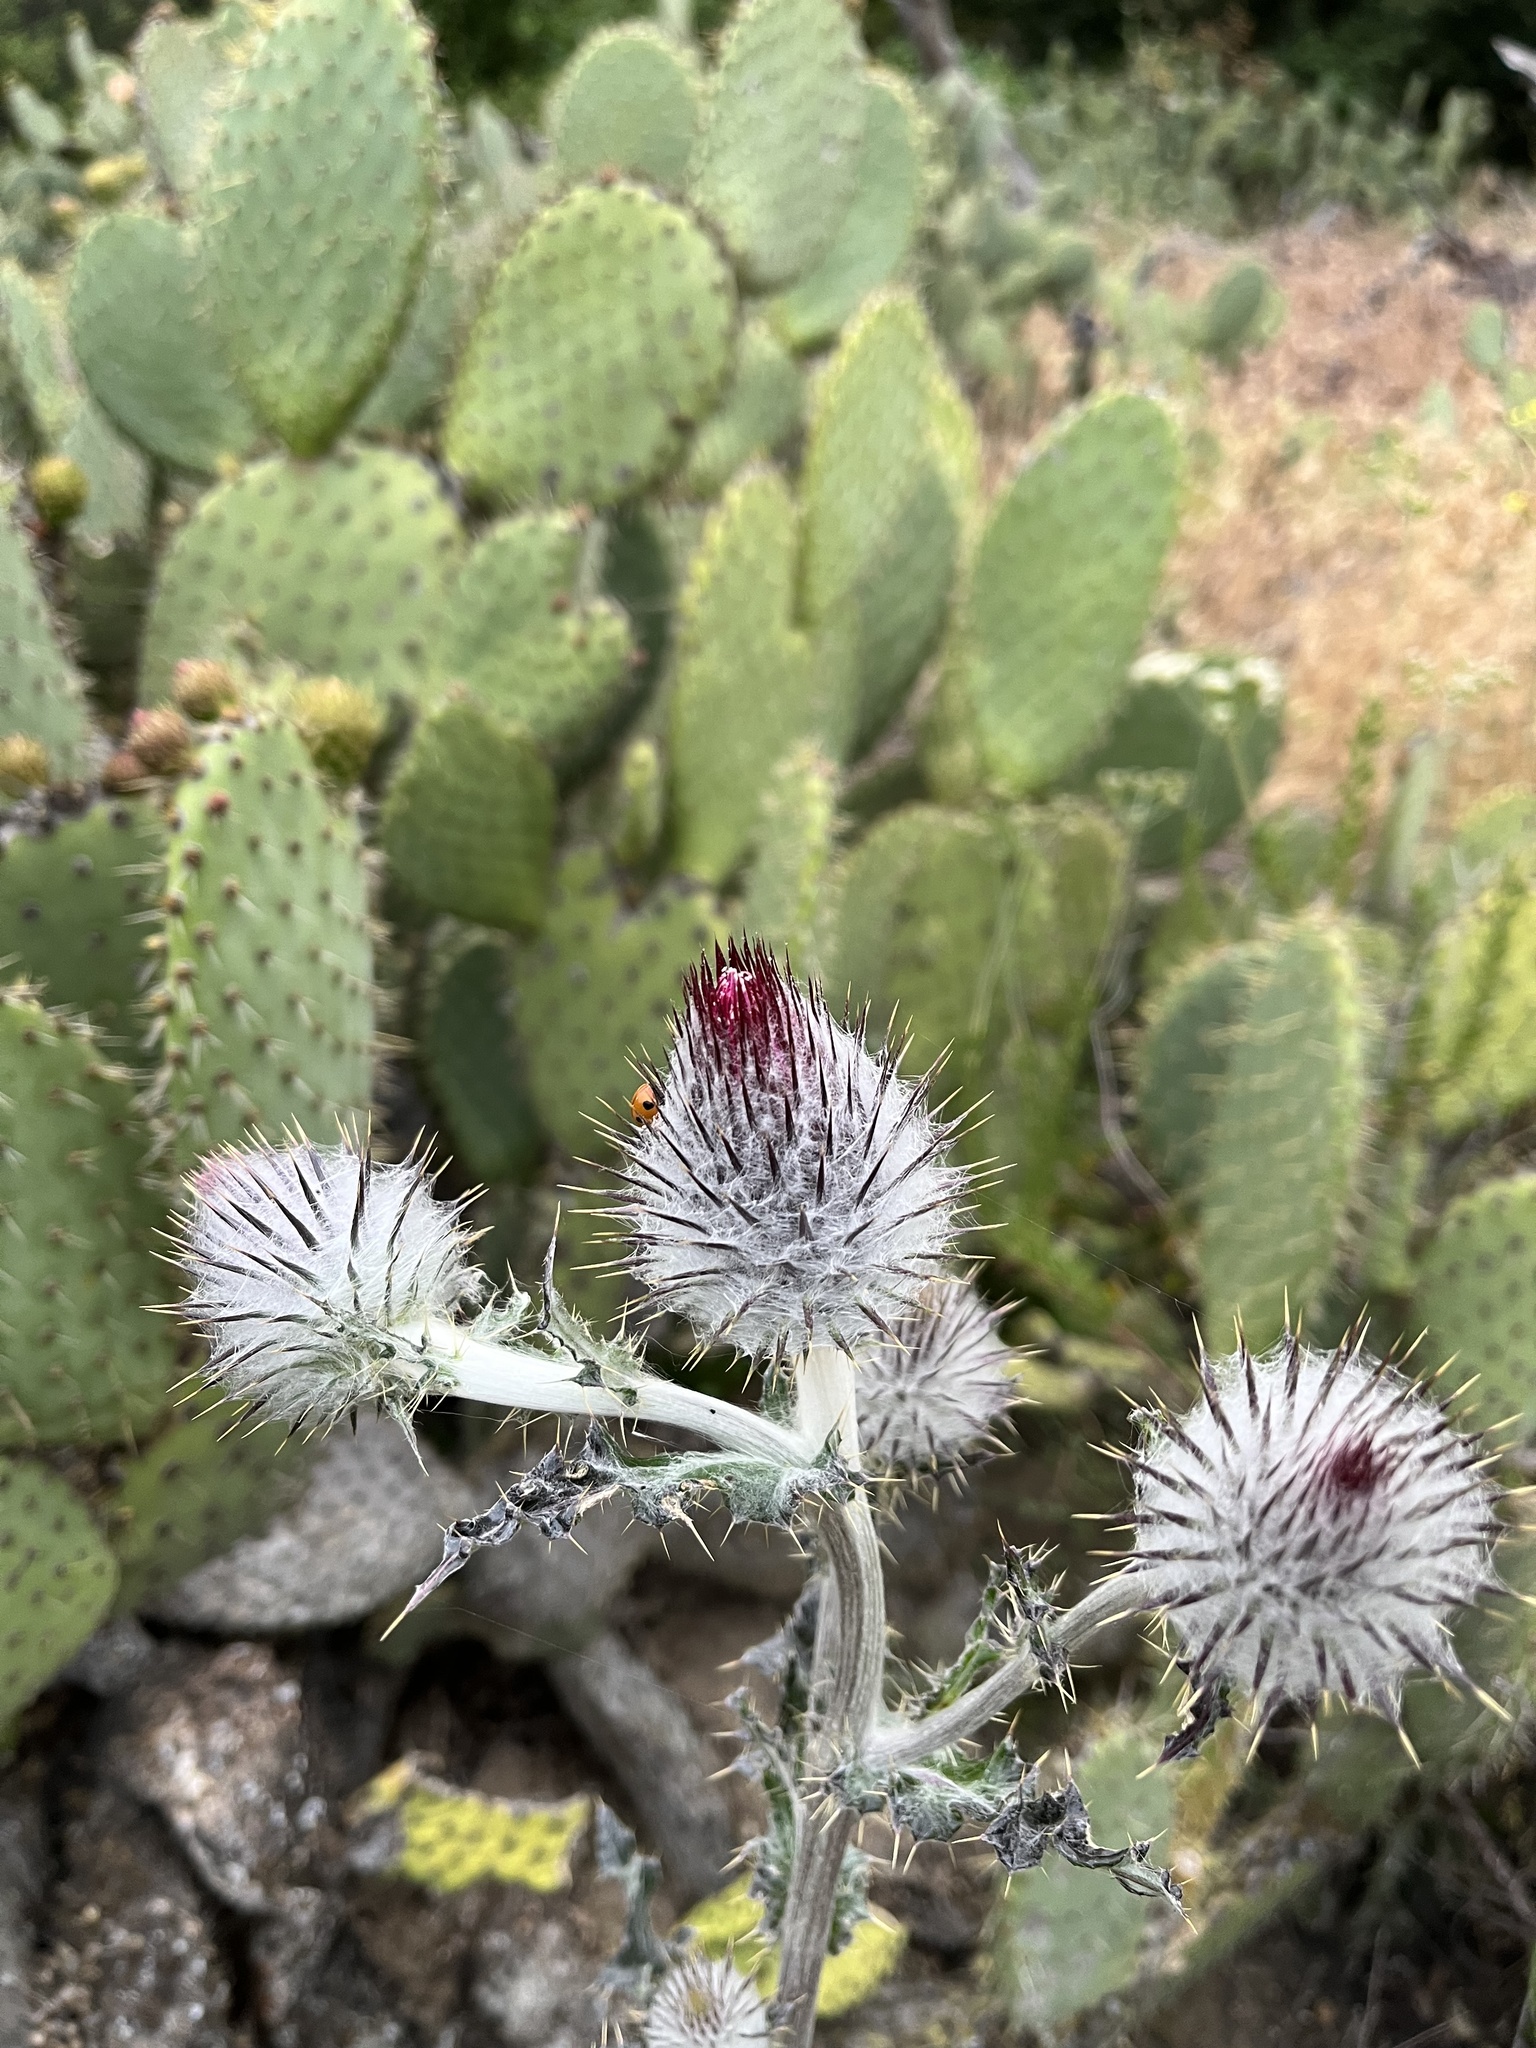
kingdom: Plantae
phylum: Tracheophyta
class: Magnoliopsida
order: Asterales
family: Asteraceae
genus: Cirsium
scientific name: Cirsium occidentale
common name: Western thistle
